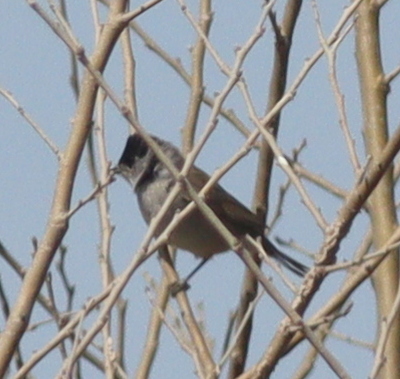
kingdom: Animalia
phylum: Chordata
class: Aves
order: Passeriformes
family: Sylviidae
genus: Sylvia
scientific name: Sylvia atricapilla
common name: Eurasian blackcap
